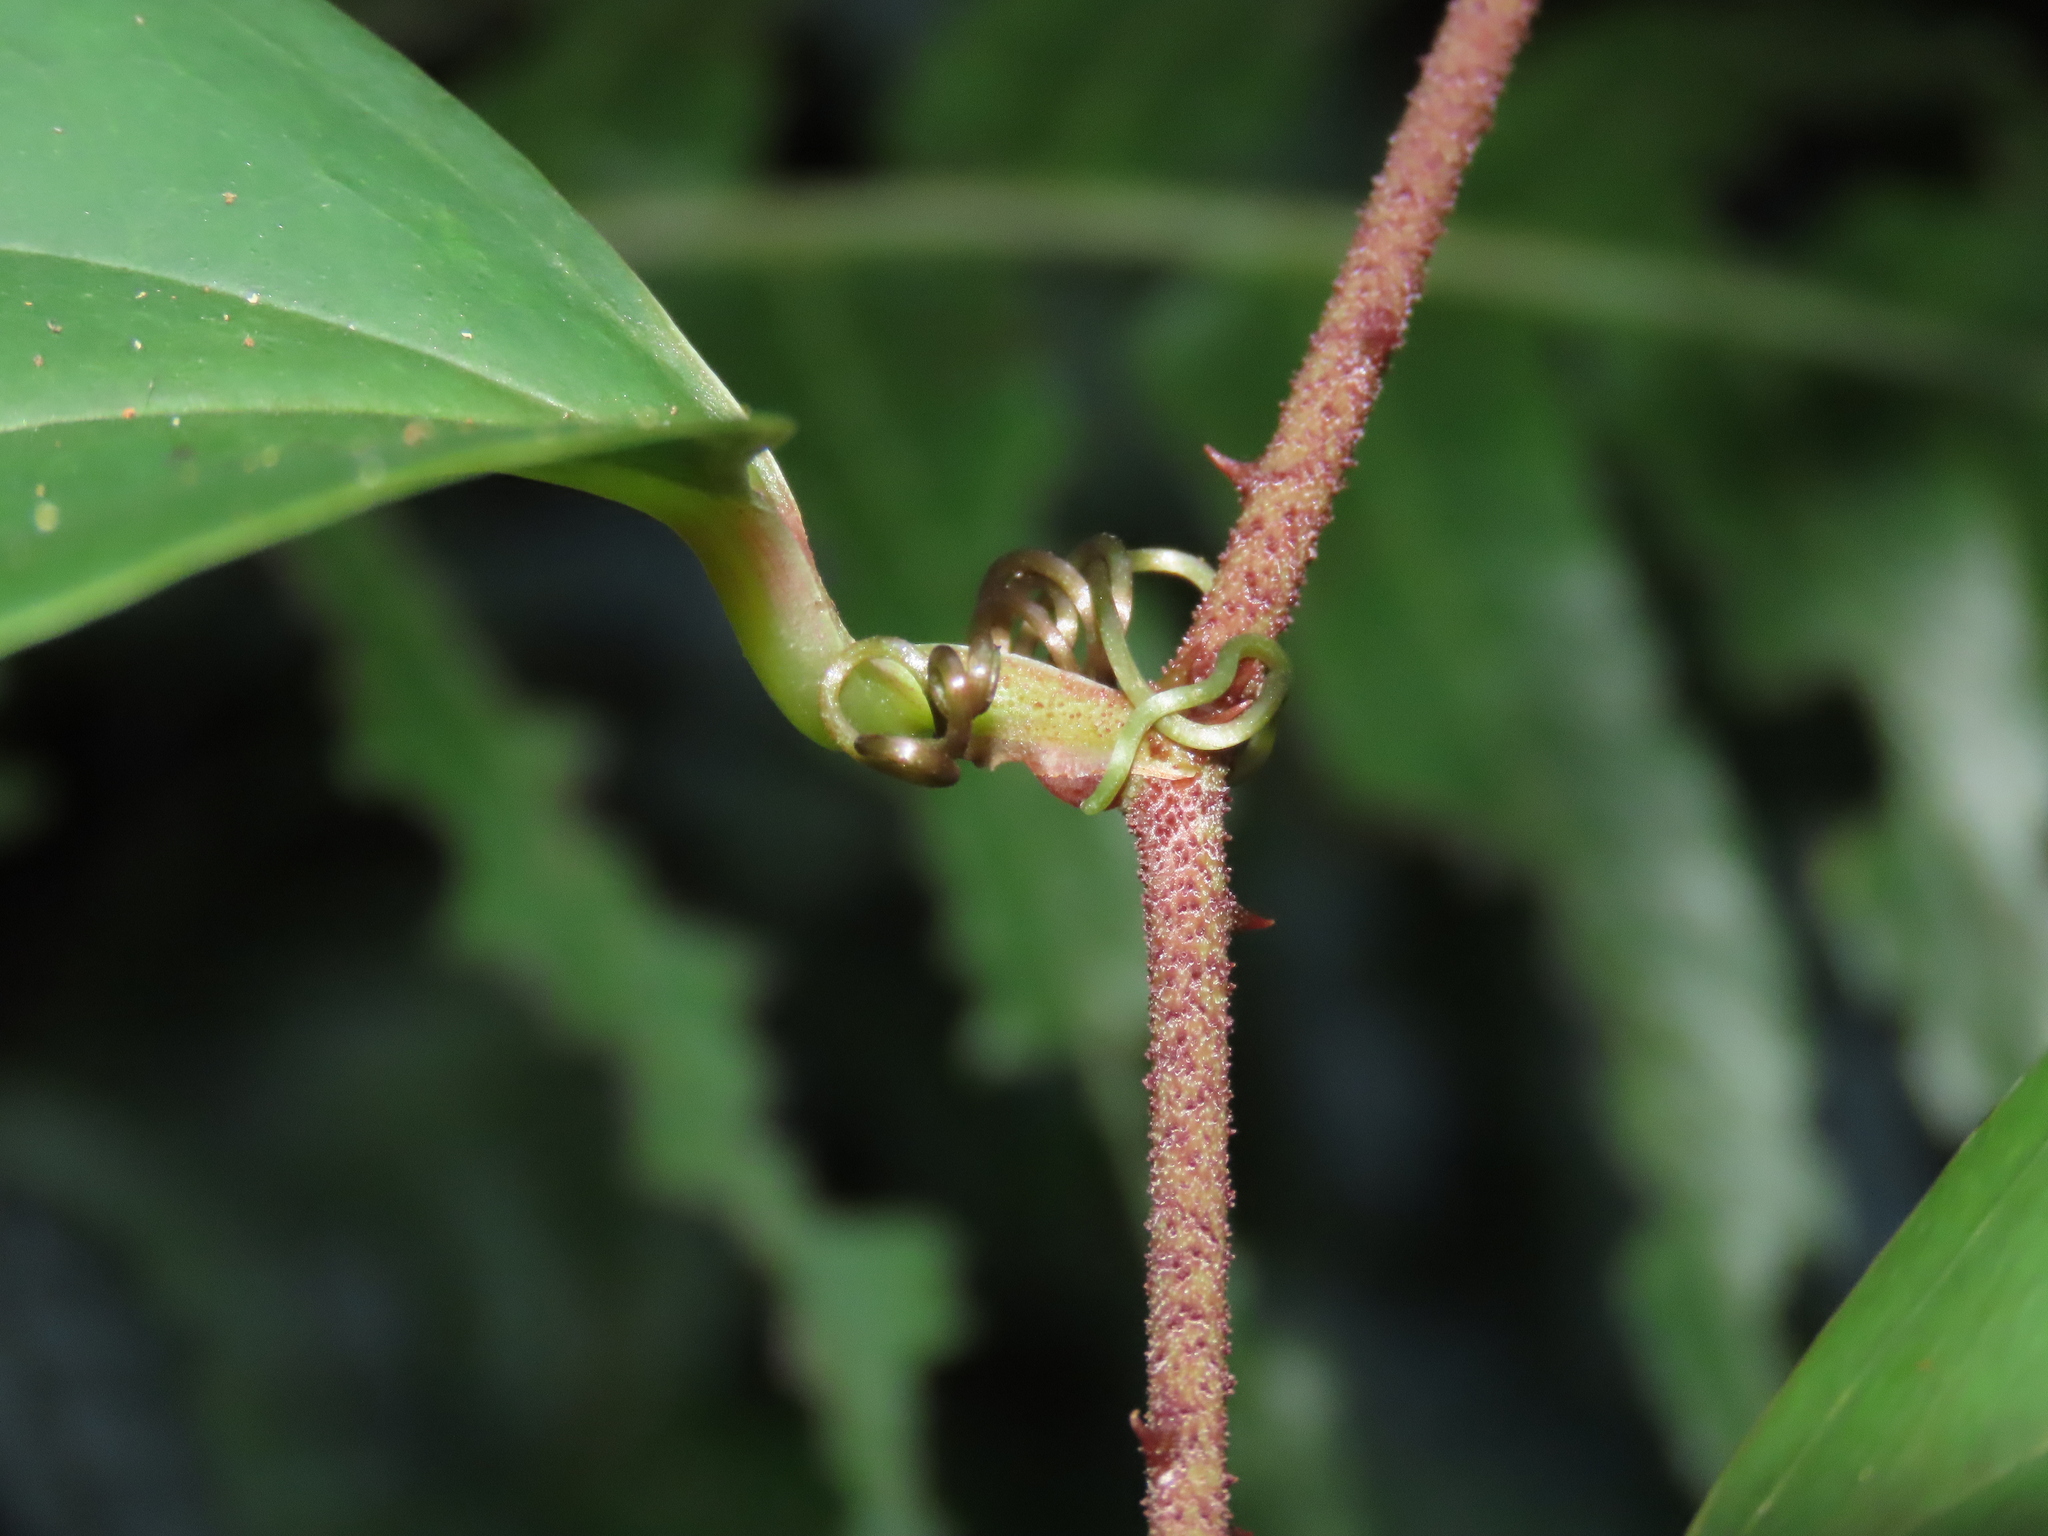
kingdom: Plantae
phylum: Tracheophyta
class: Liliopsida
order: Liliales
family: Smilacaceae
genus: Smilax
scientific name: Smilax bracteata
